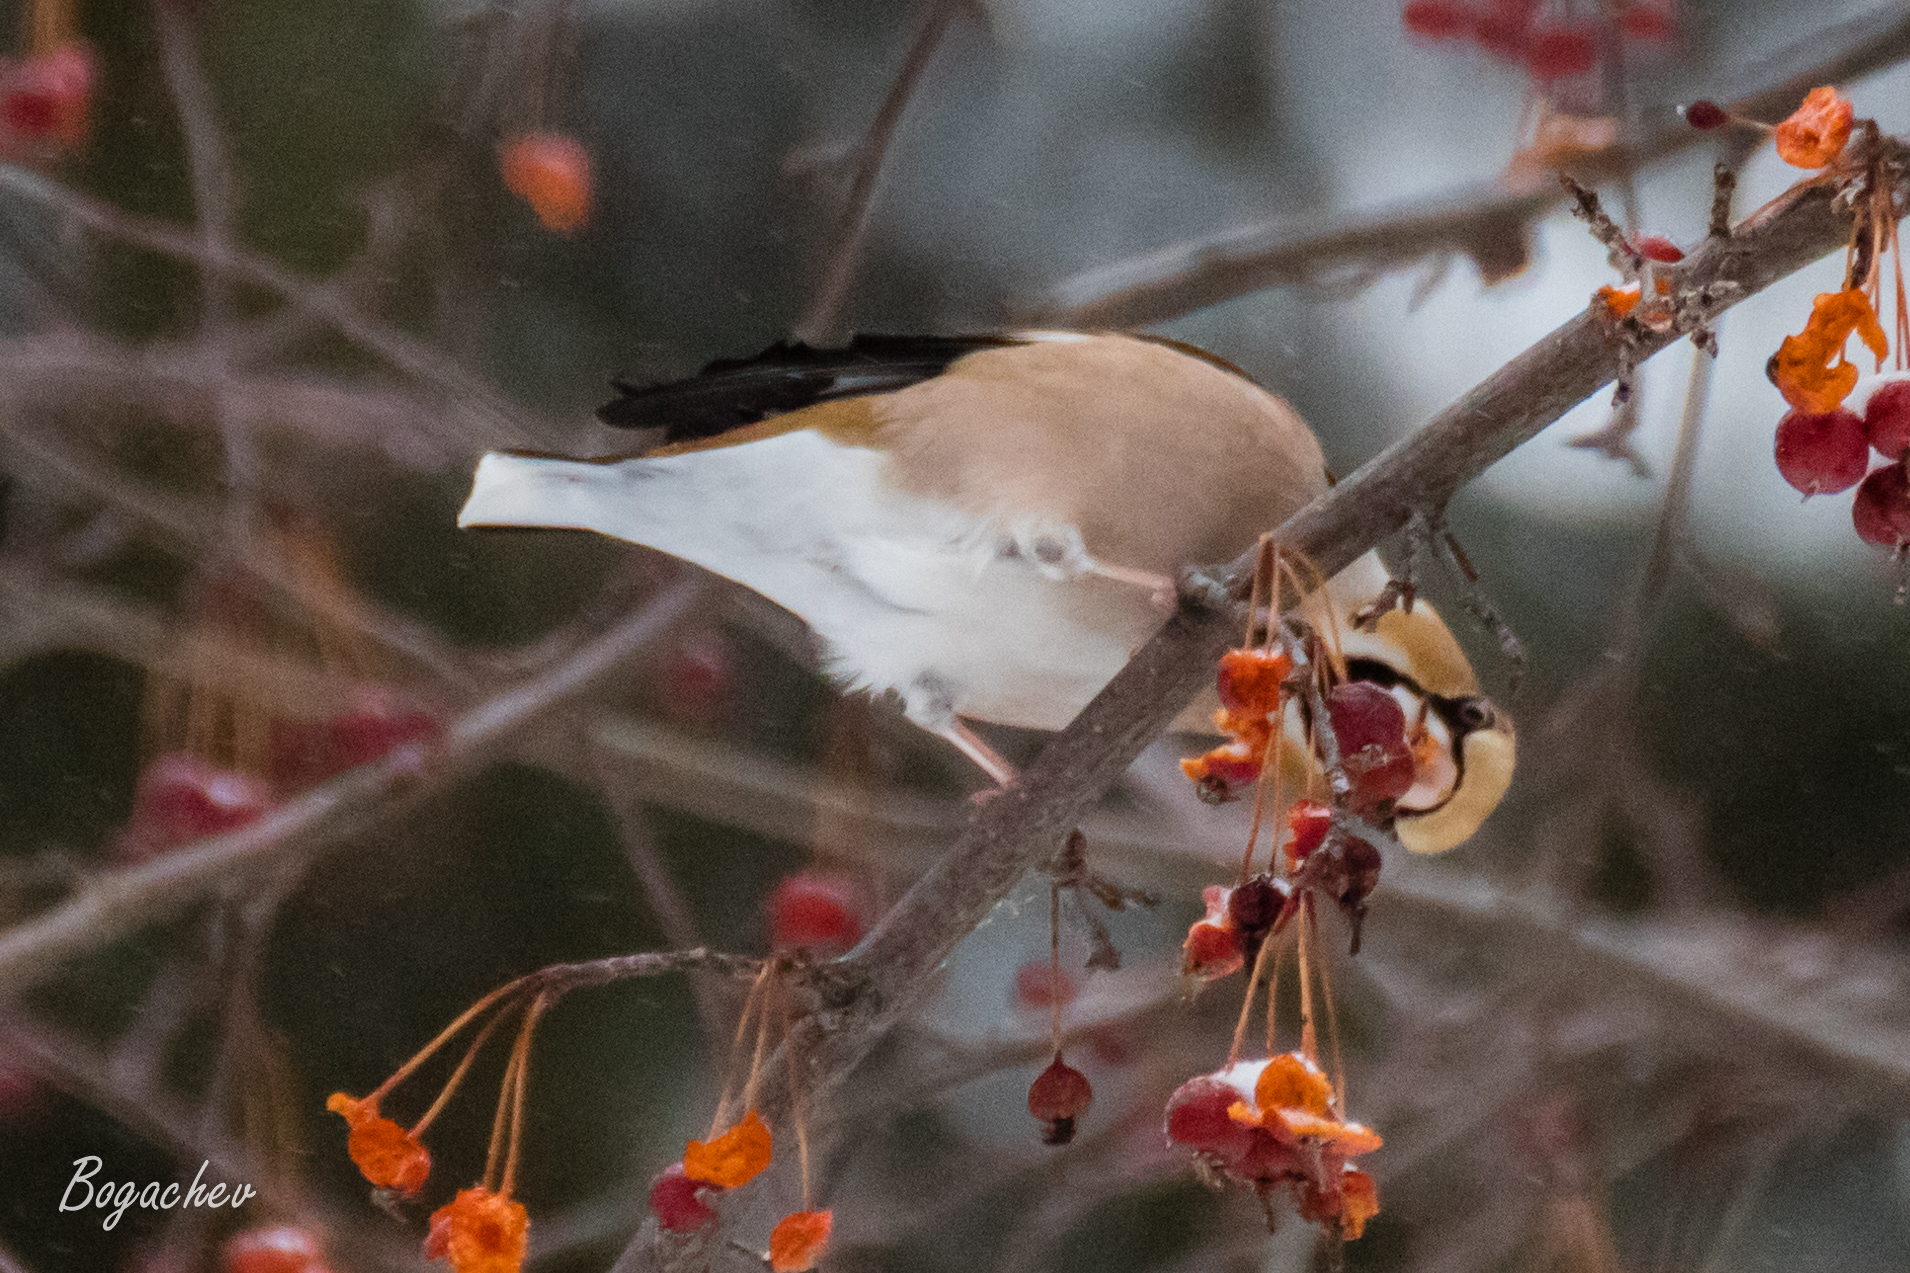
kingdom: Animalia
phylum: Chordata
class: Aves
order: Passeriformes
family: Fringillidae
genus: Coccothraustes
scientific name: Coccothraustes coccothraustes
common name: Hawfinch
